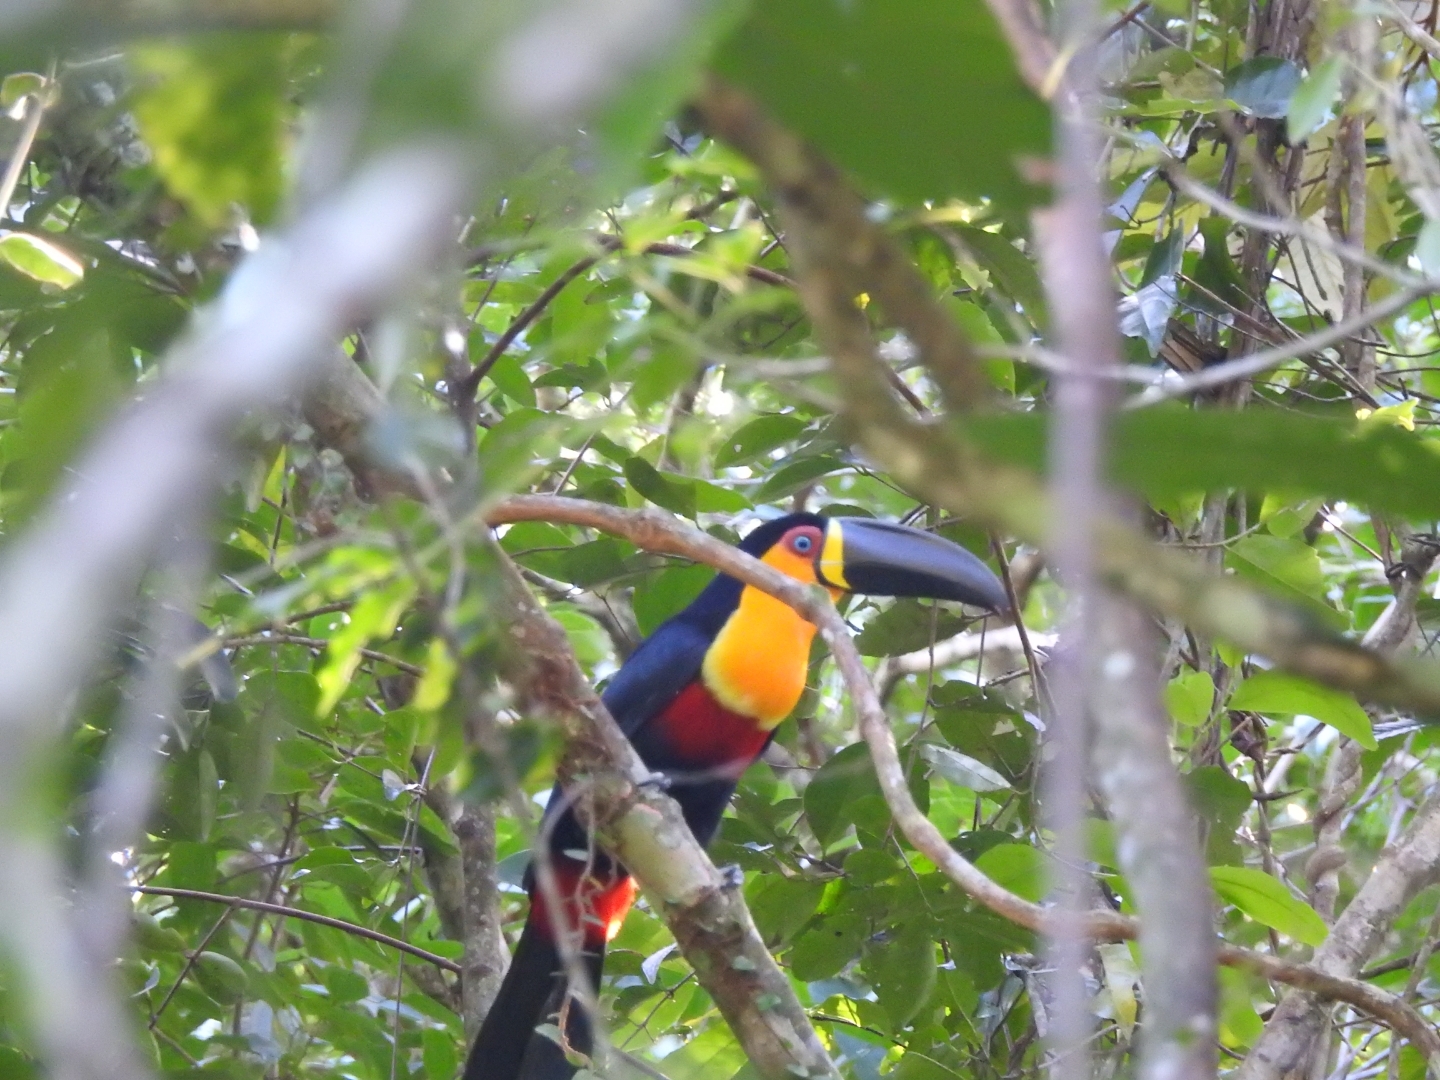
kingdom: Animalia
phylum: Chordata
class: Aves
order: Piciformes
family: Ramphastidae
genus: Ramphastos
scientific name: Ramphastos vitellinus
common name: Channel-billed toucan
